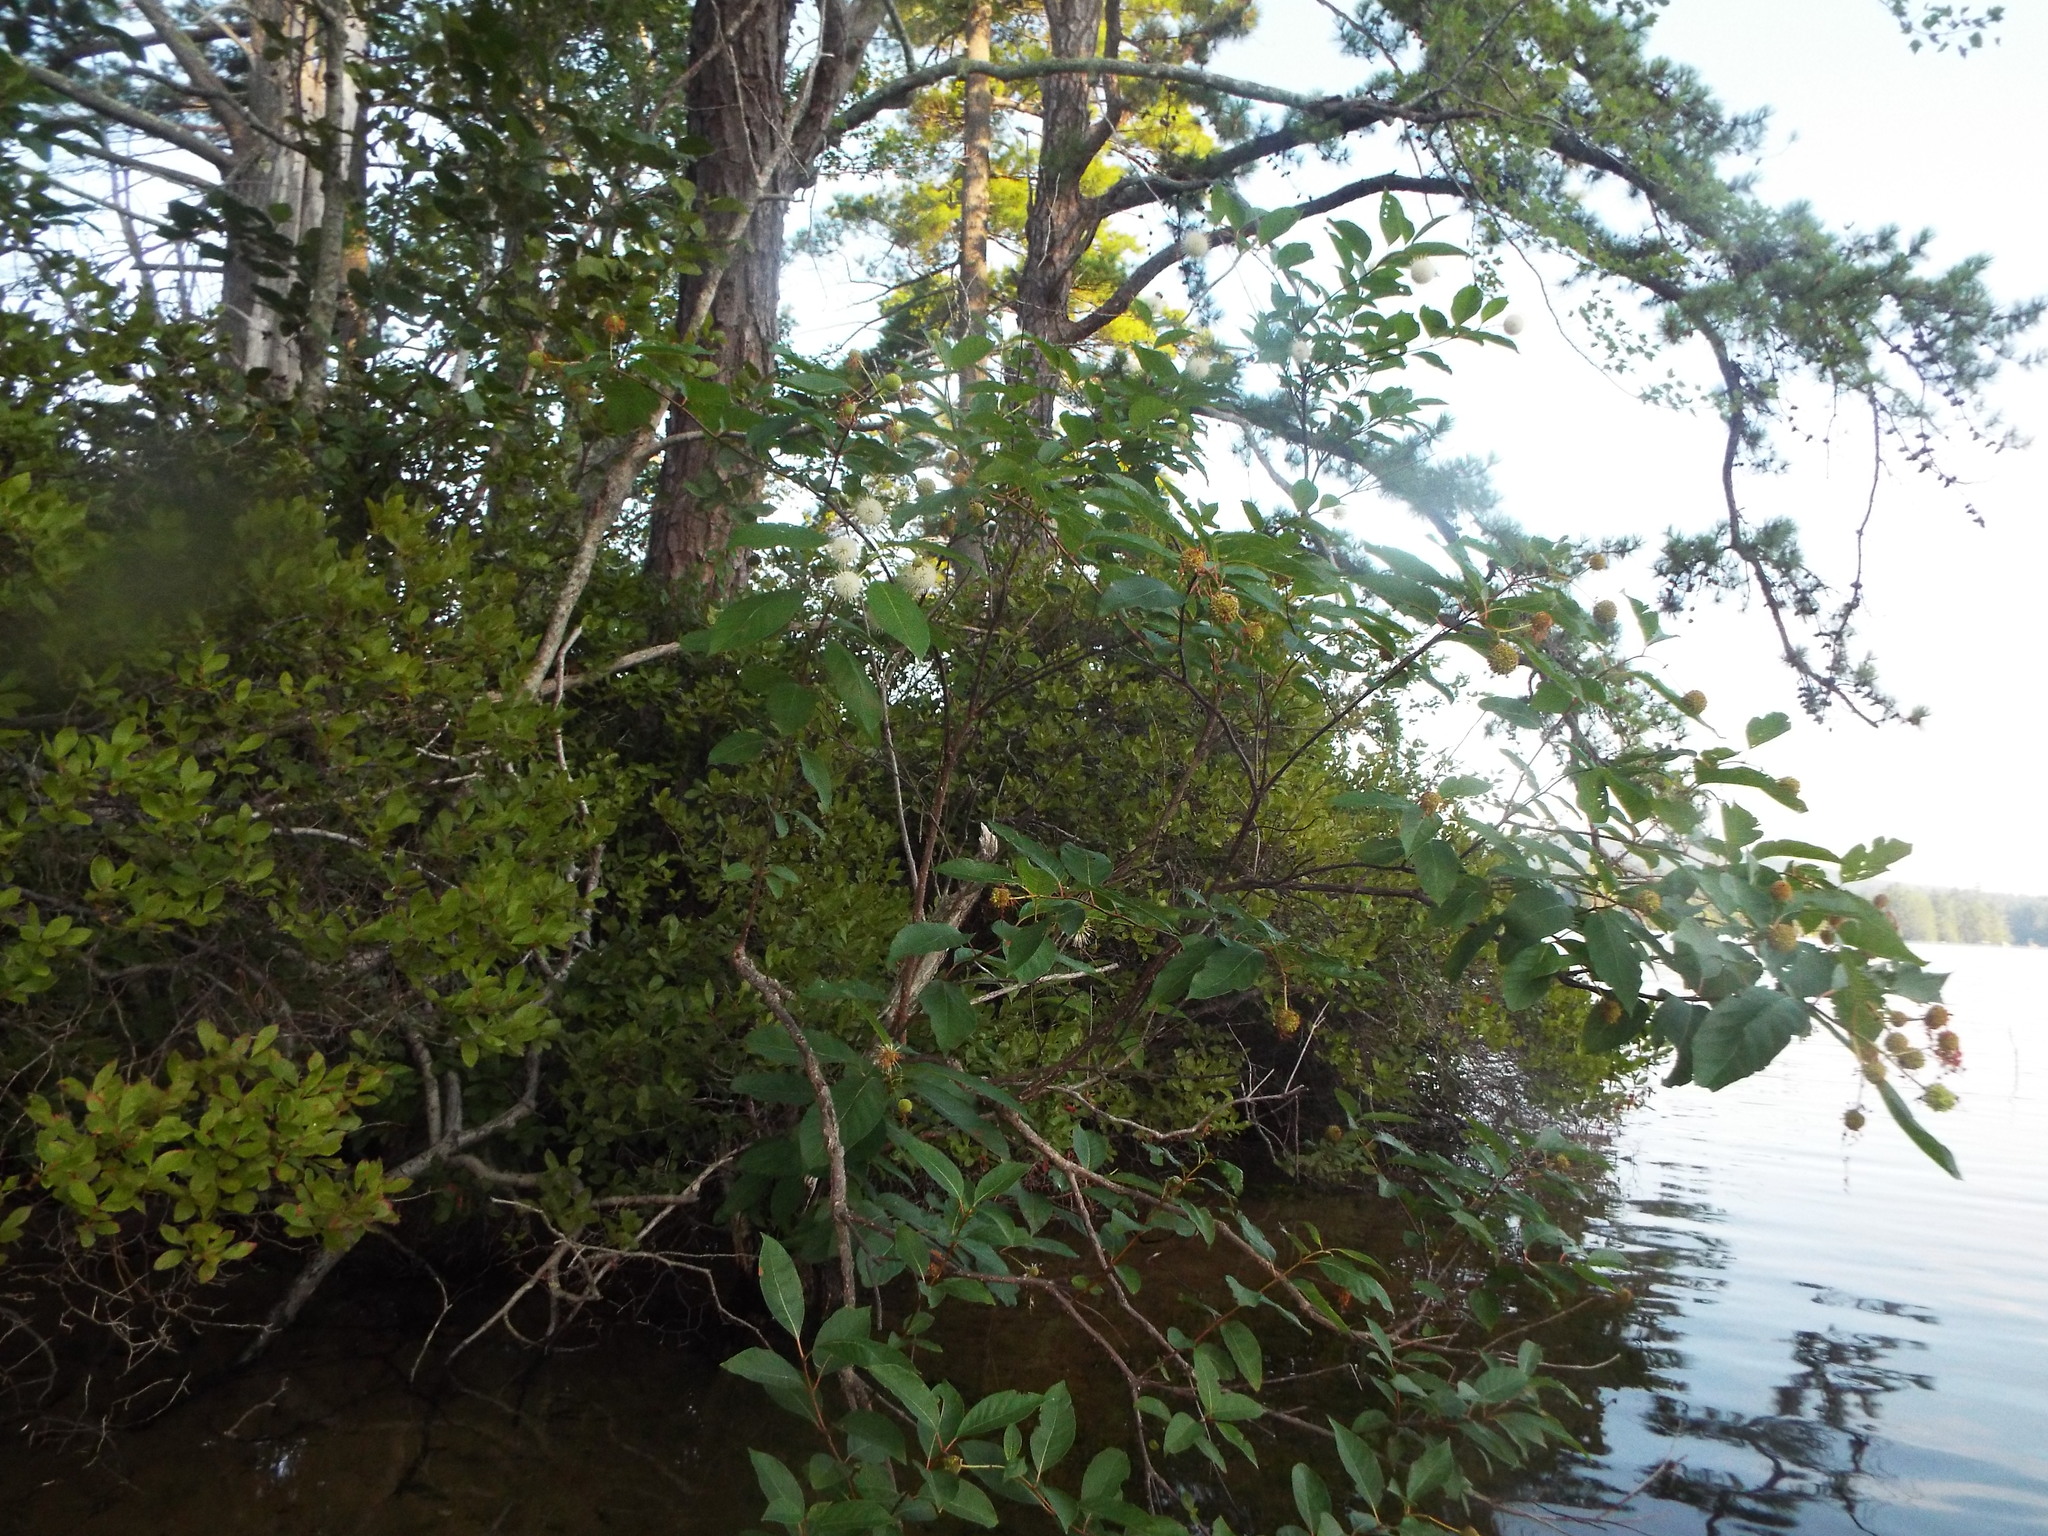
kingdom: Plantae
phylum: Tracheophyta
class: Magnoliopsida
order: Gentianales
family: Rubiaceae
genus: Cephalanthus
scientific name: Cephalanthus occidentalis
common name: Button-willow
